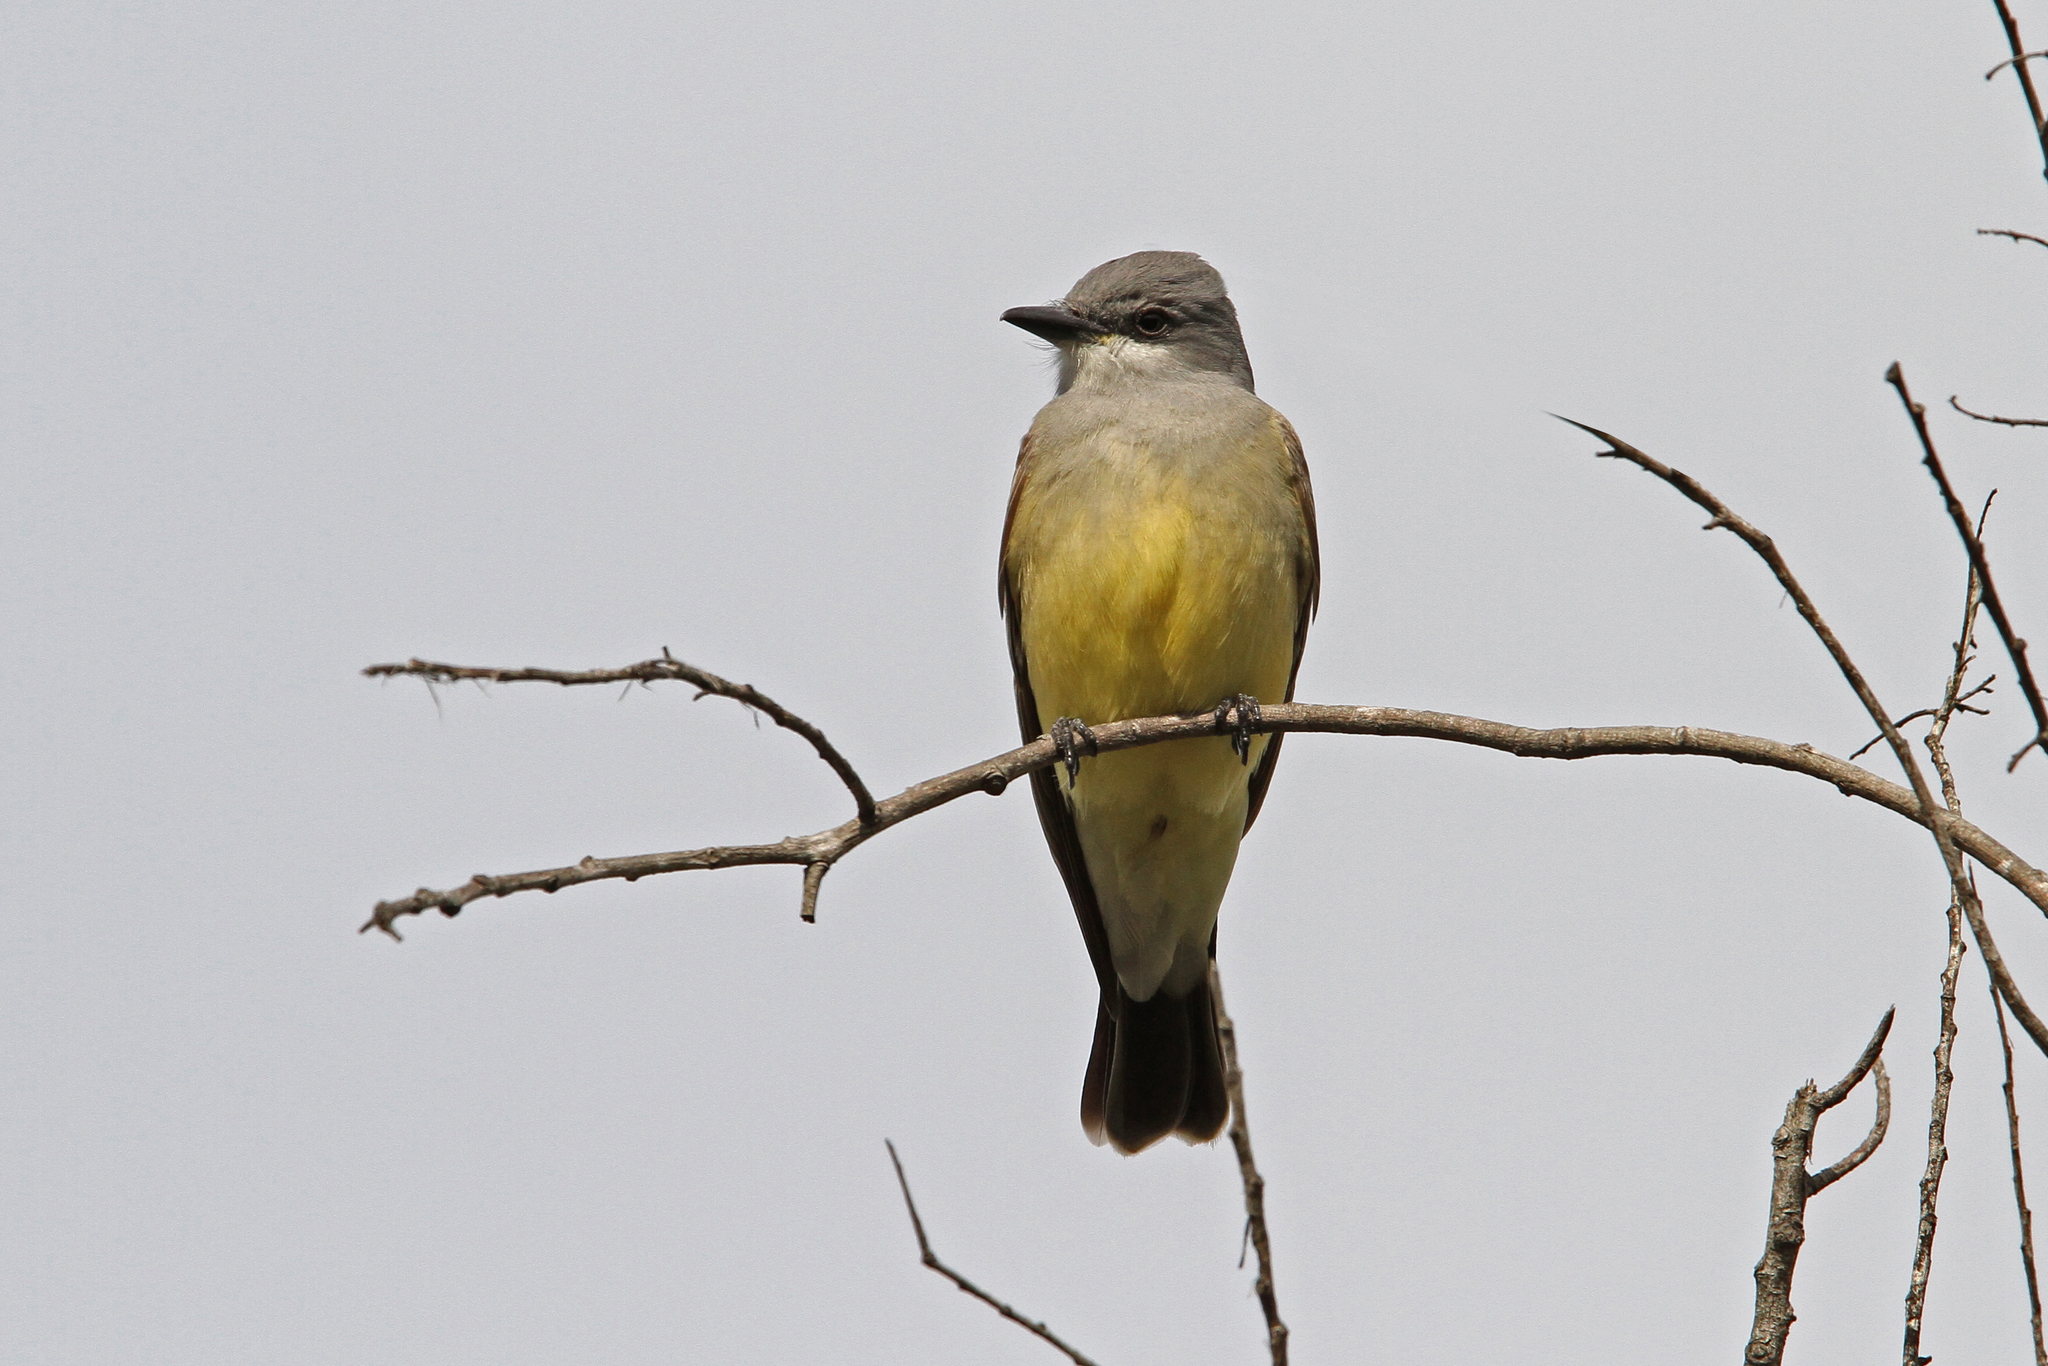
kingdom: Animalia
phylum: Chordata
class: Aves
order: Passeriformes
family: Tyrannidae
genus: Tyrannus
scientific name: Tyrannus vociferans
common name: Cassin's kingbird
